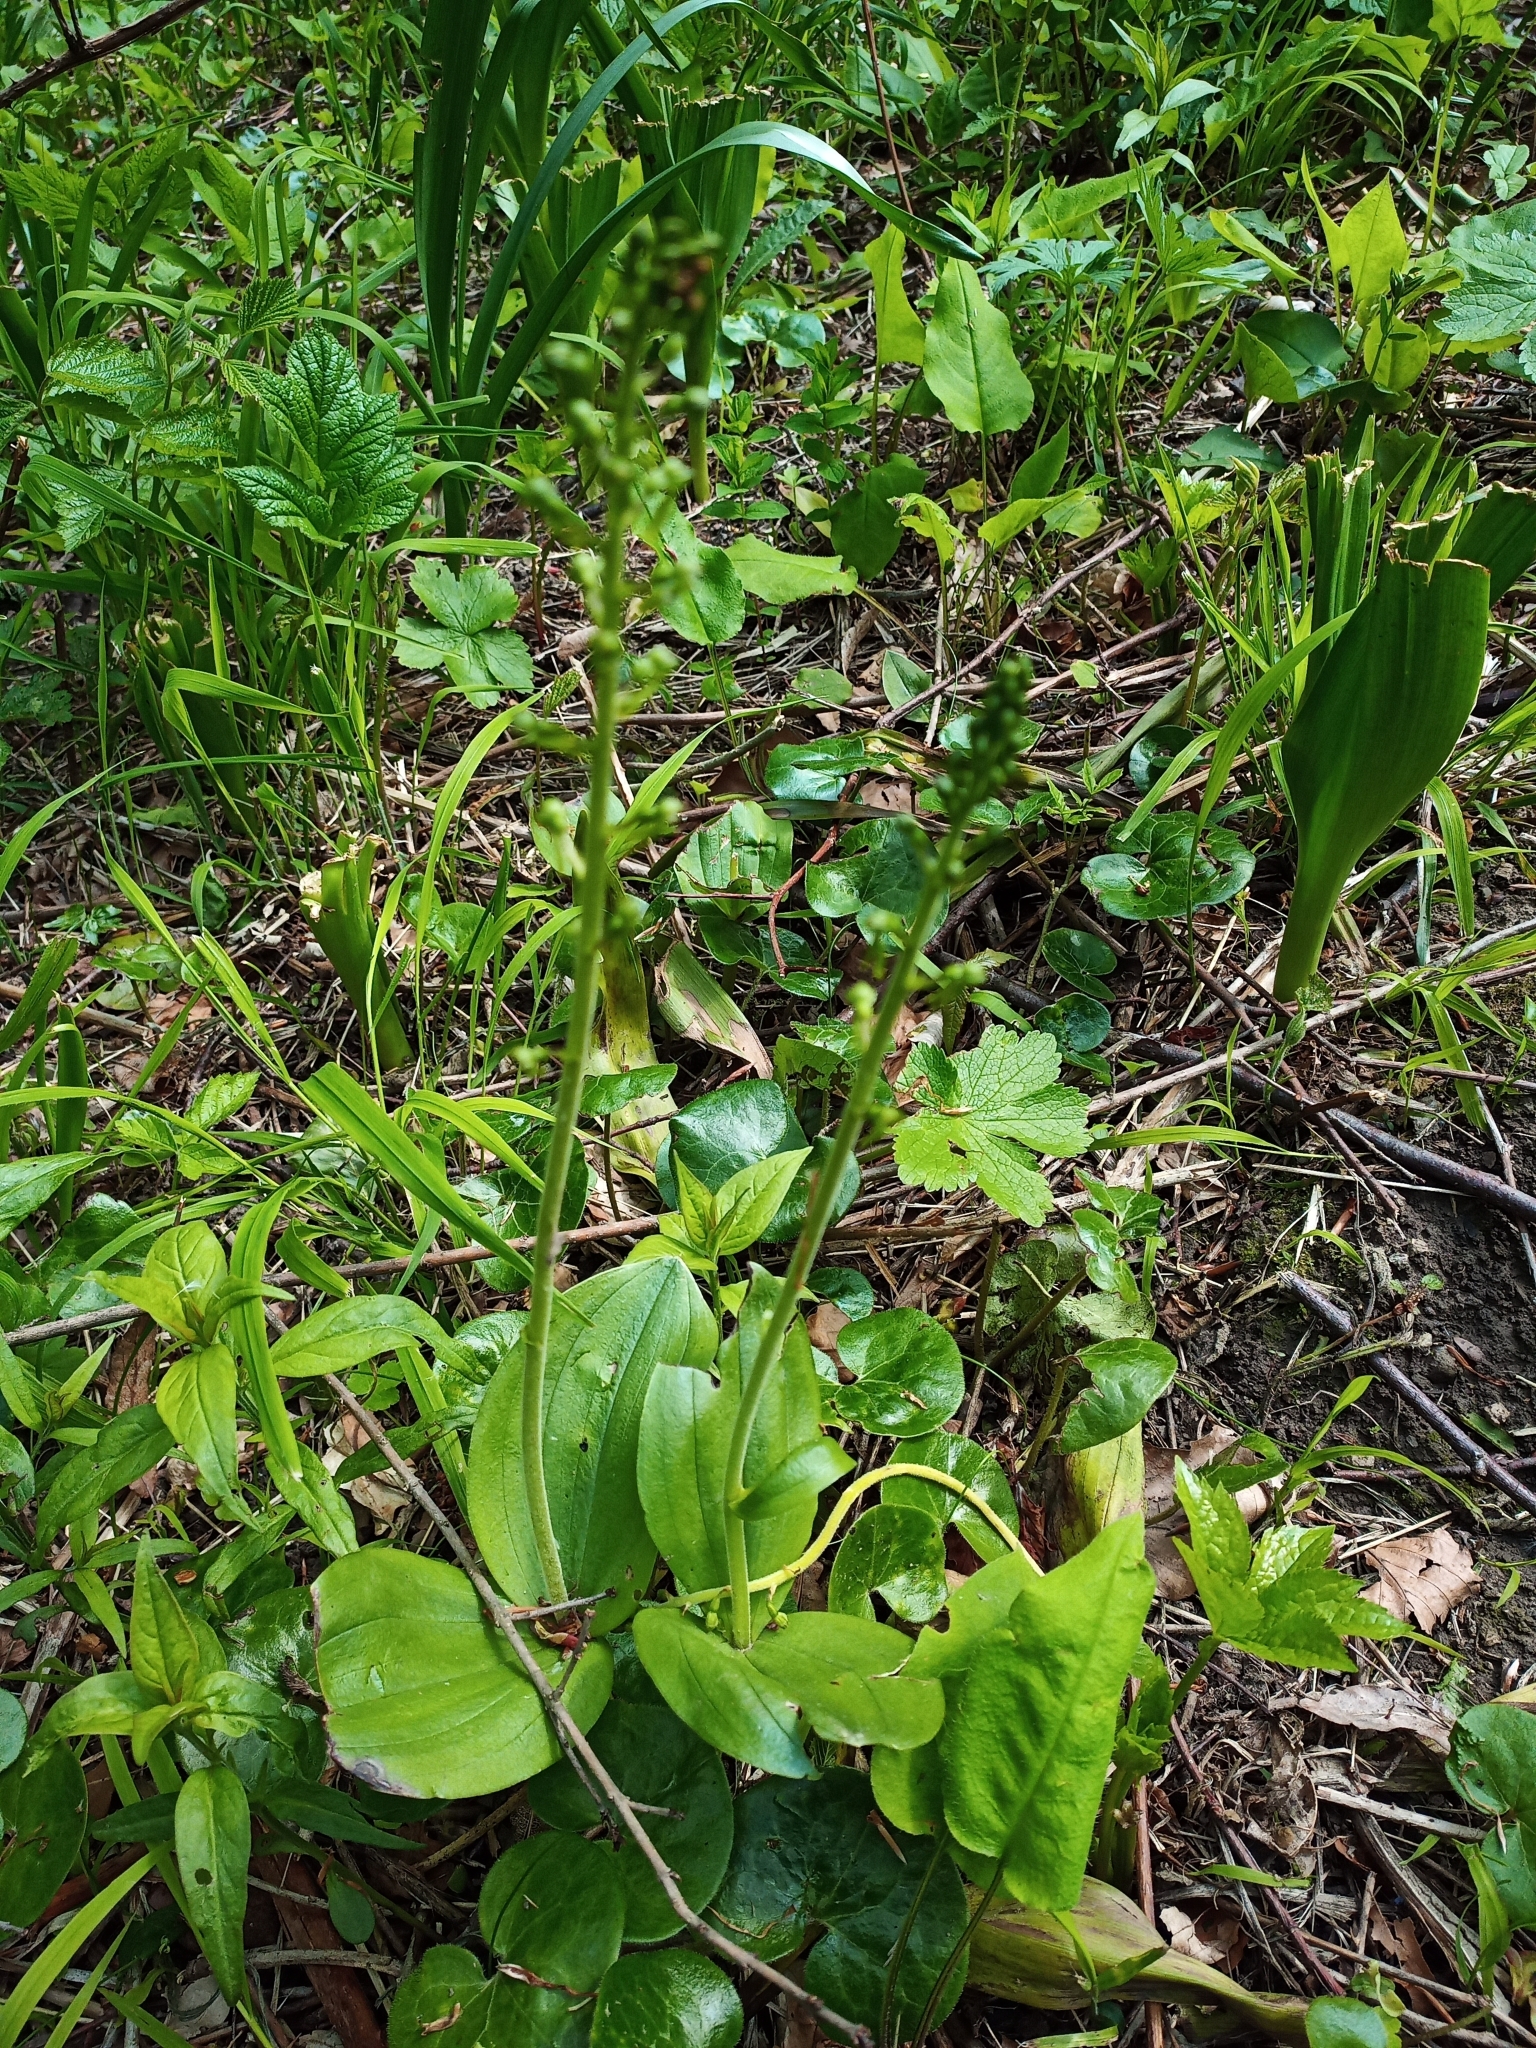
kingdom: Plantae
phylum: Tracheophyta
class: Liliopsida
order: Asparagales
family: Orchidaceae
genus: Neottia
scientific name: Neottia ovata
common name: Common twayblade
